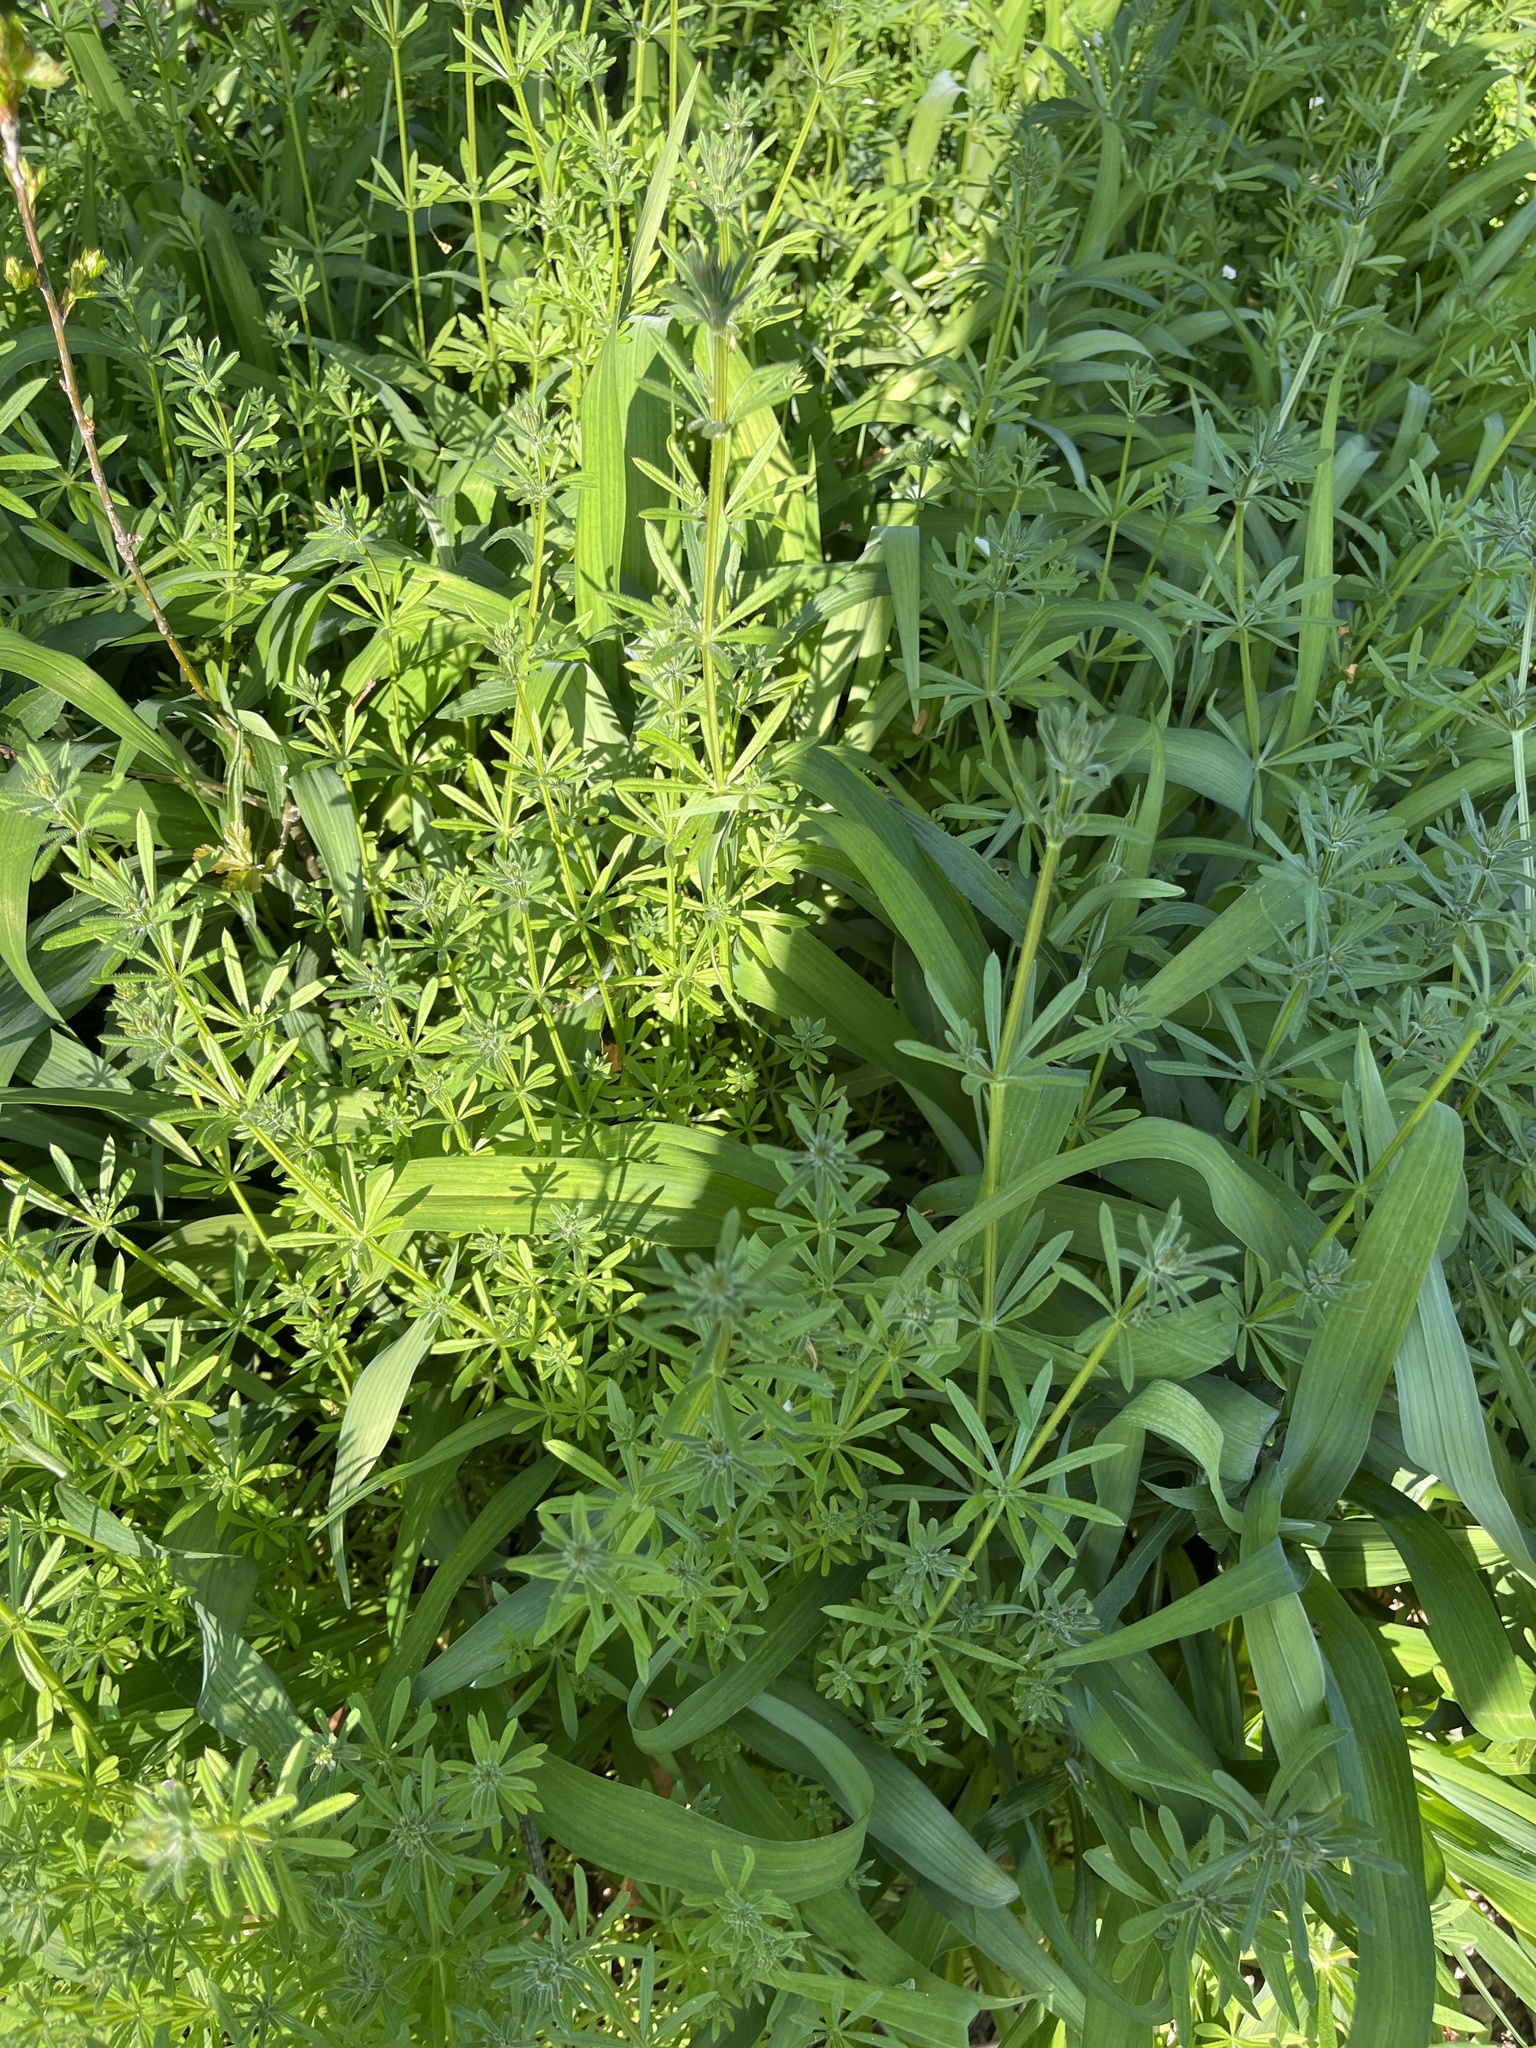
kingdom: Plantae
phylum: Tracheophyta
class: Magnoliopsida
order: Gentianales
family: Rubiaceae
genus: Galium
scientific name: Galium aparine
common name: Cleavers
